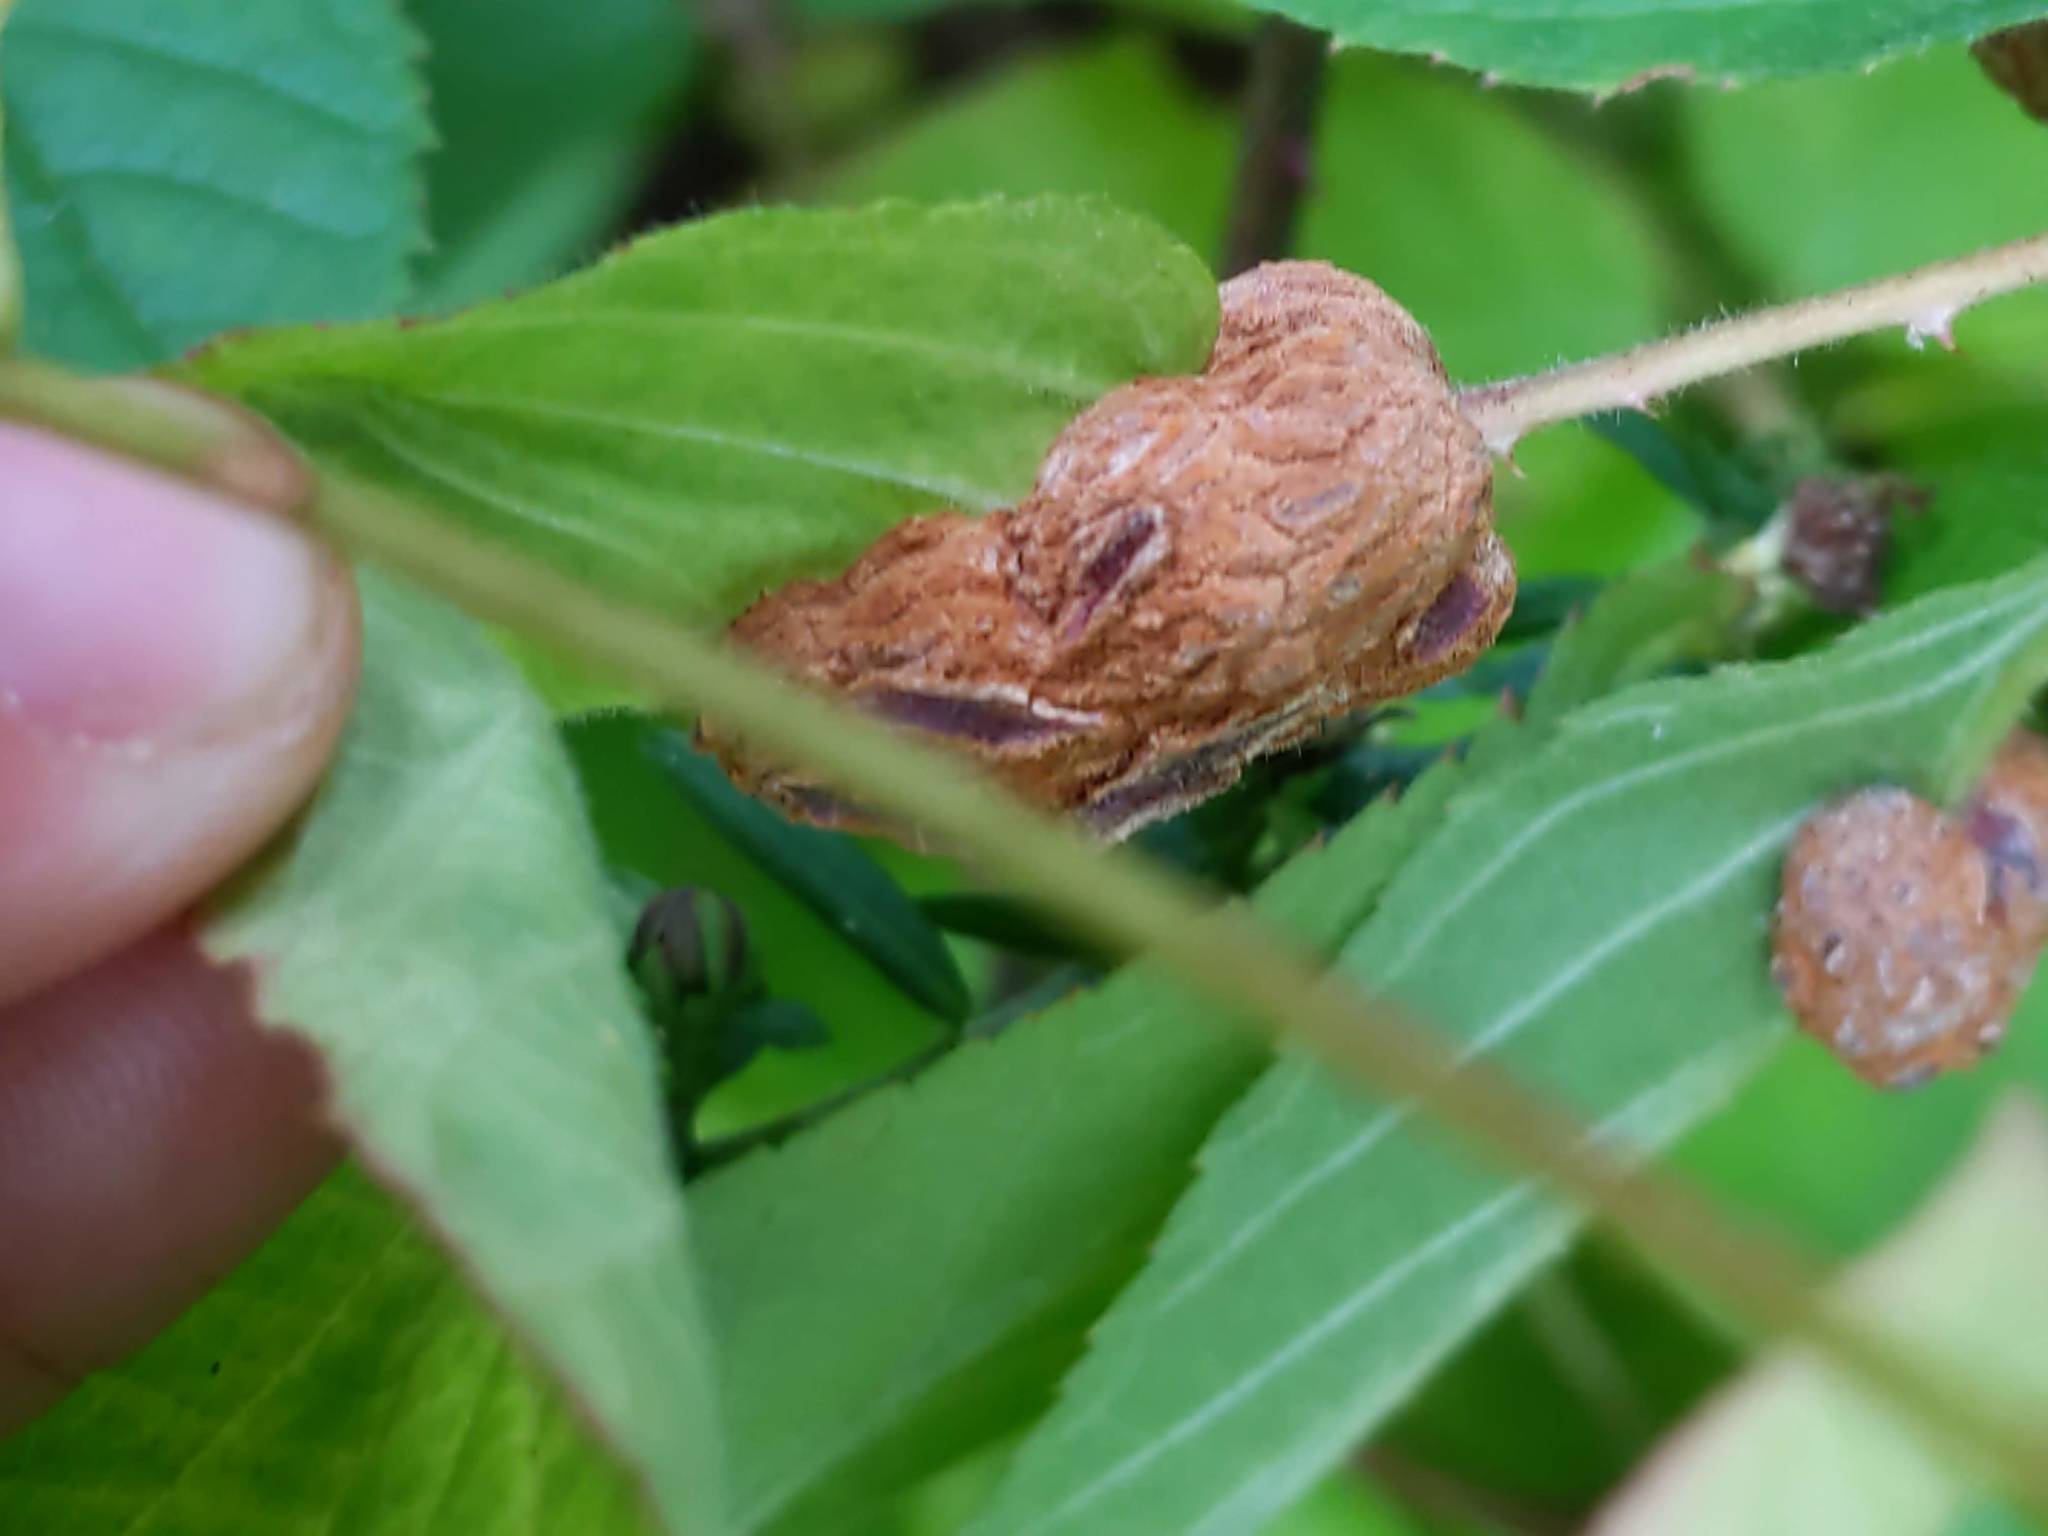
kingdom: Animalia
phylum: Arthropoda
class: Insecta
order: Diptera
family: Cecidomyiidae
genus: Neolasioptera
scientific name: Neolasioptera farinosa
